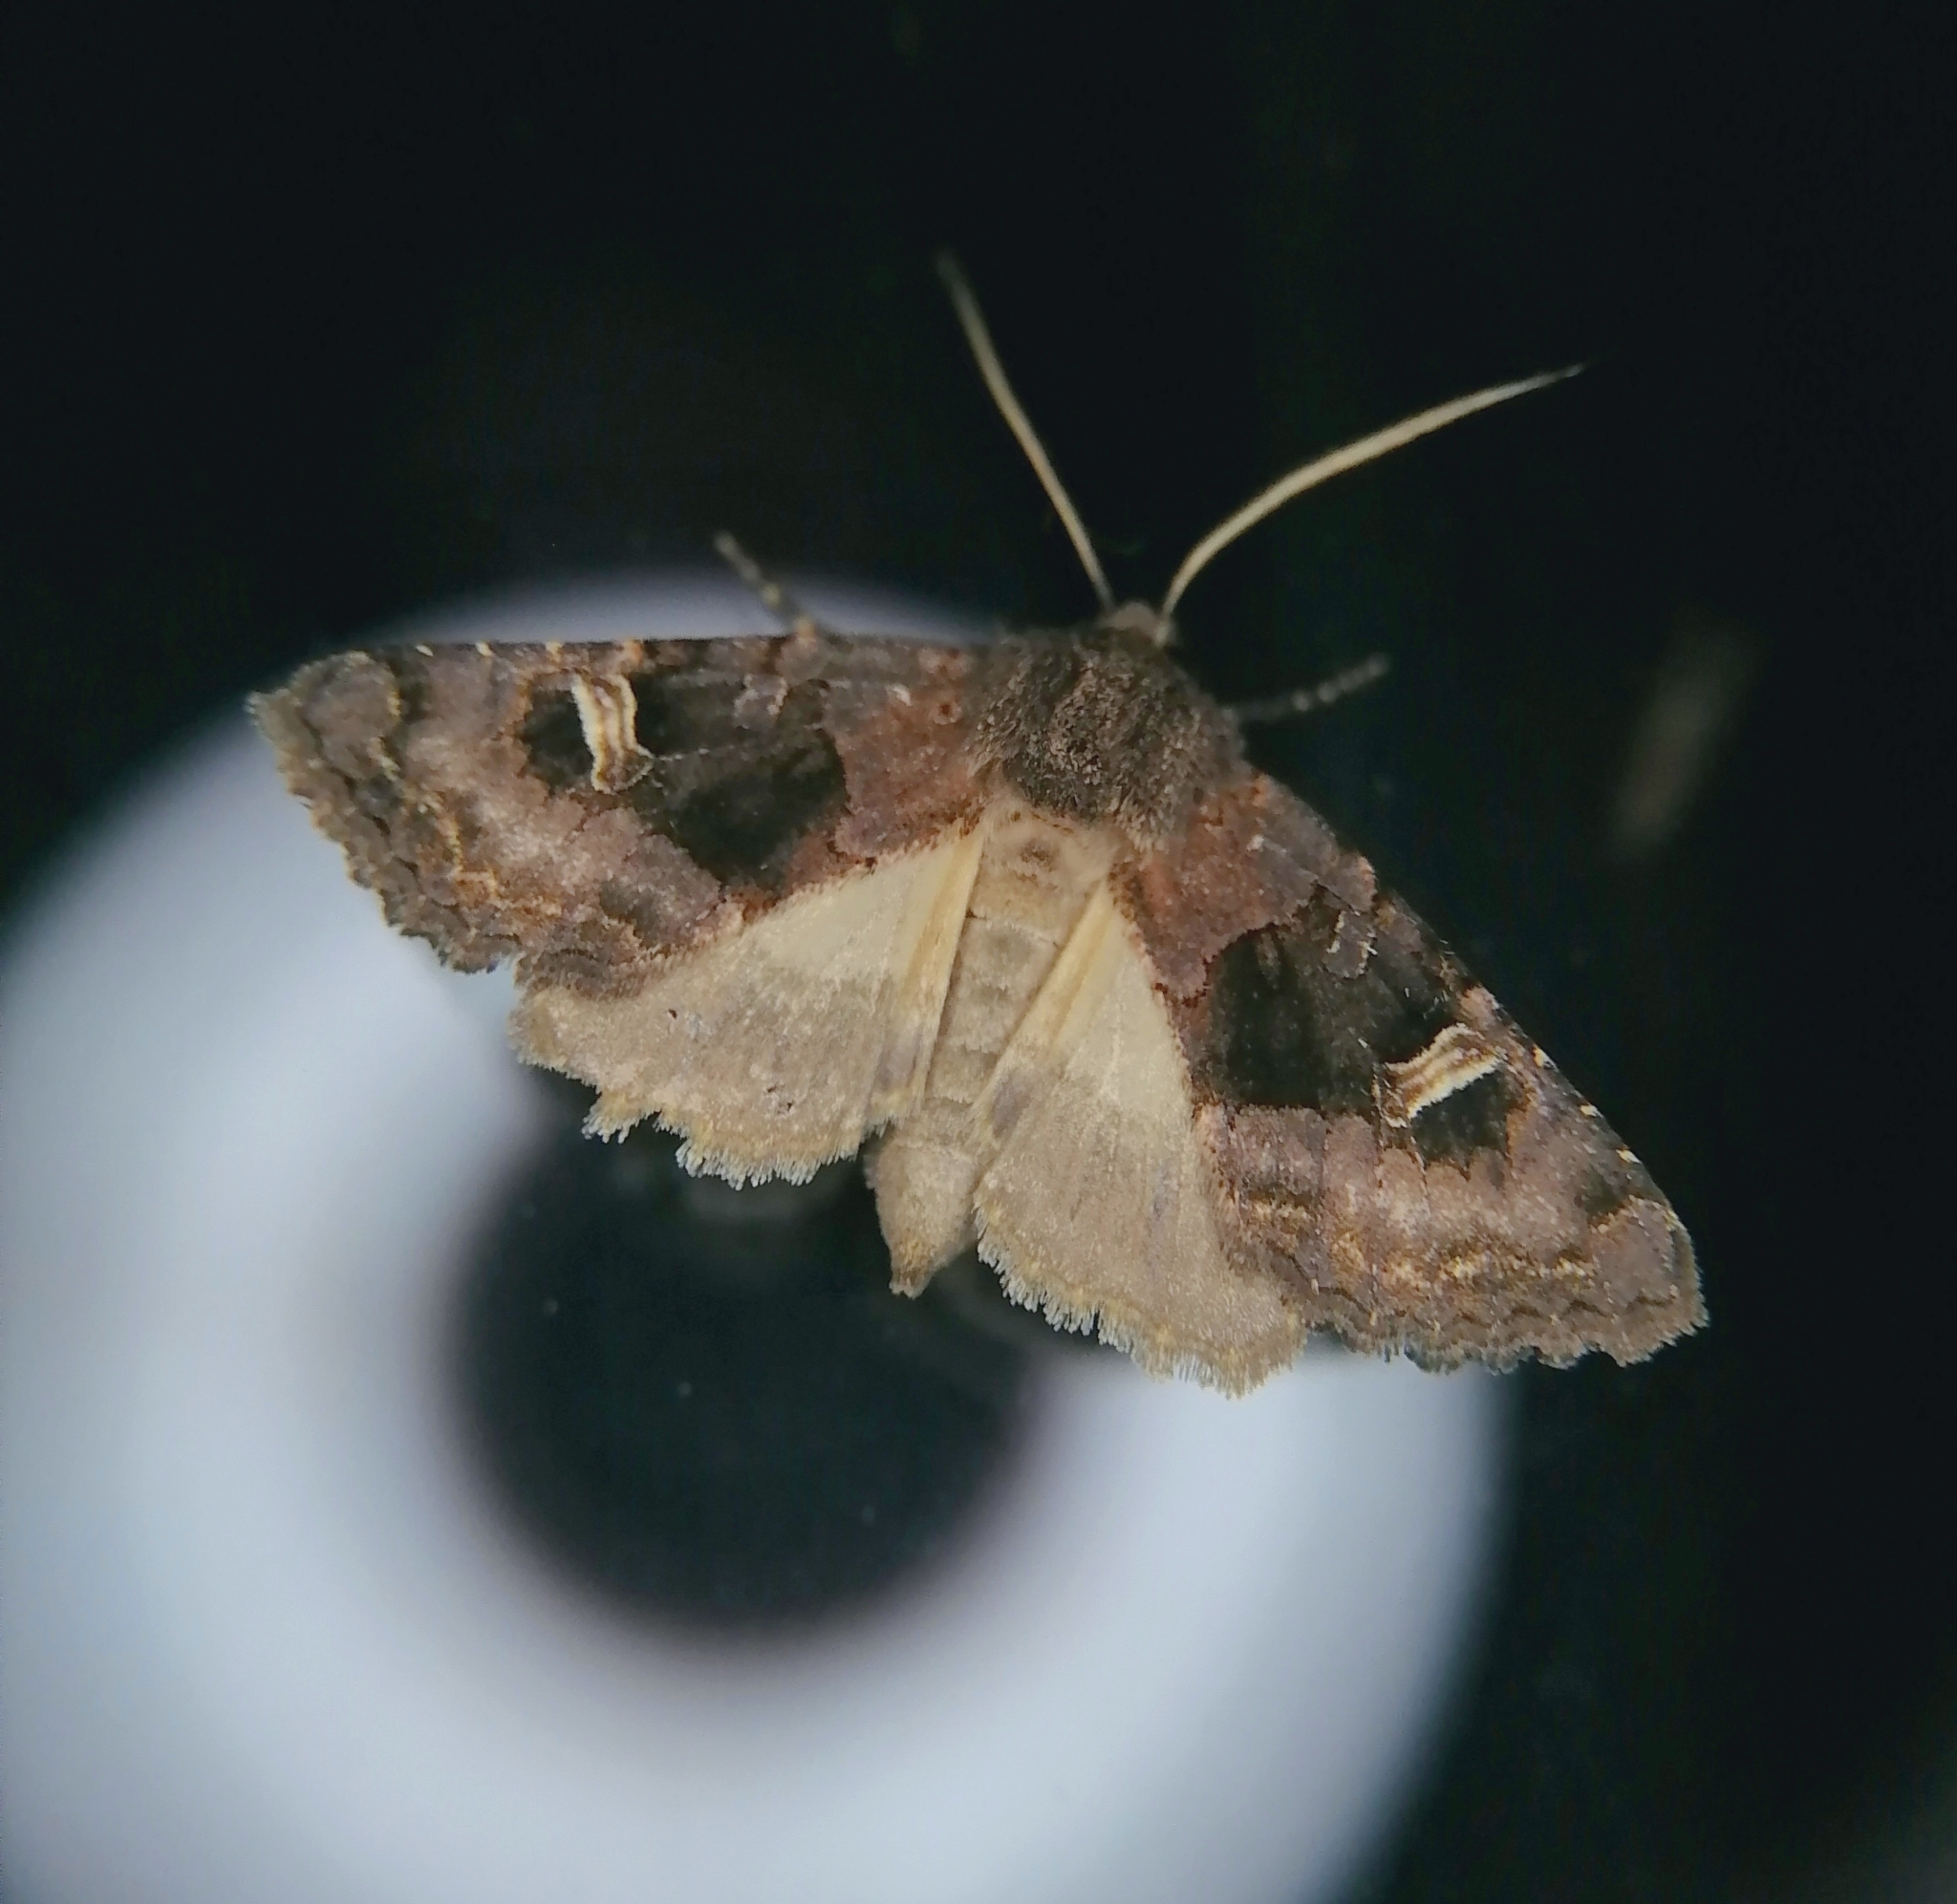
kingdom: Animalia
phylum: Arthropoda
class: Insecta
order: Lepidoptera
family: Noctuidae
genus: Nyssocnemis
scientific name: Nyssocnemis eversmanni
